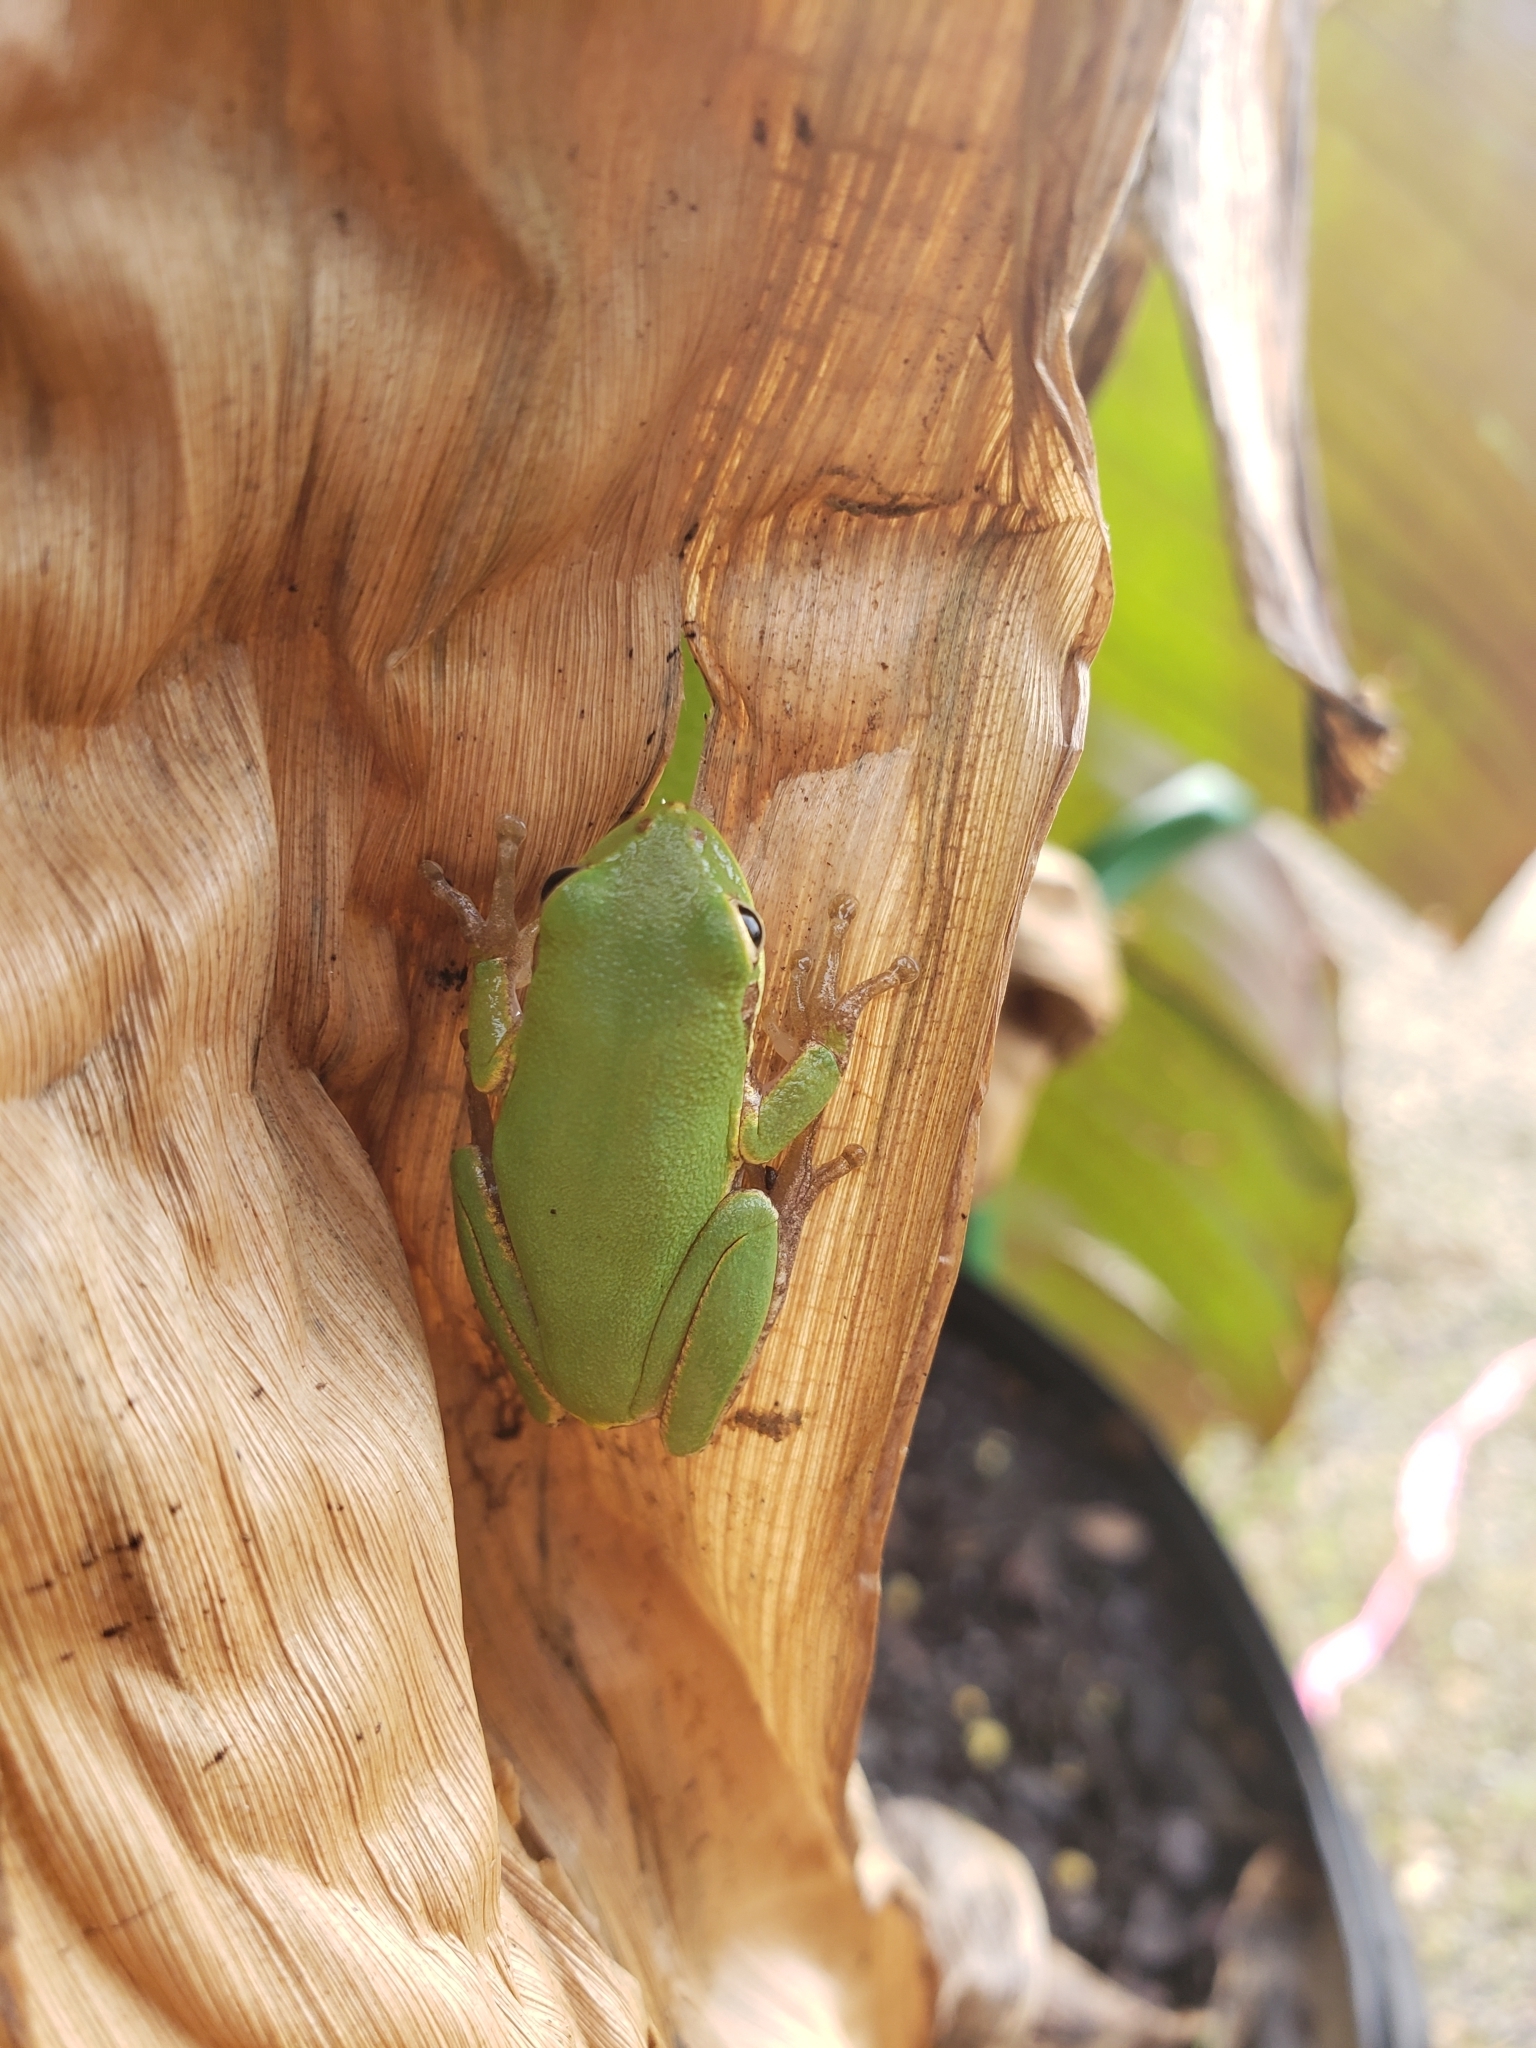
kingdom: Animalia
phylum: Chordata
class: Amphibia
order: Anura
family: Hylidae
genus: Dryophytes
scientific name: Dryophytes squirellus
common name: Squirrel treefrog
